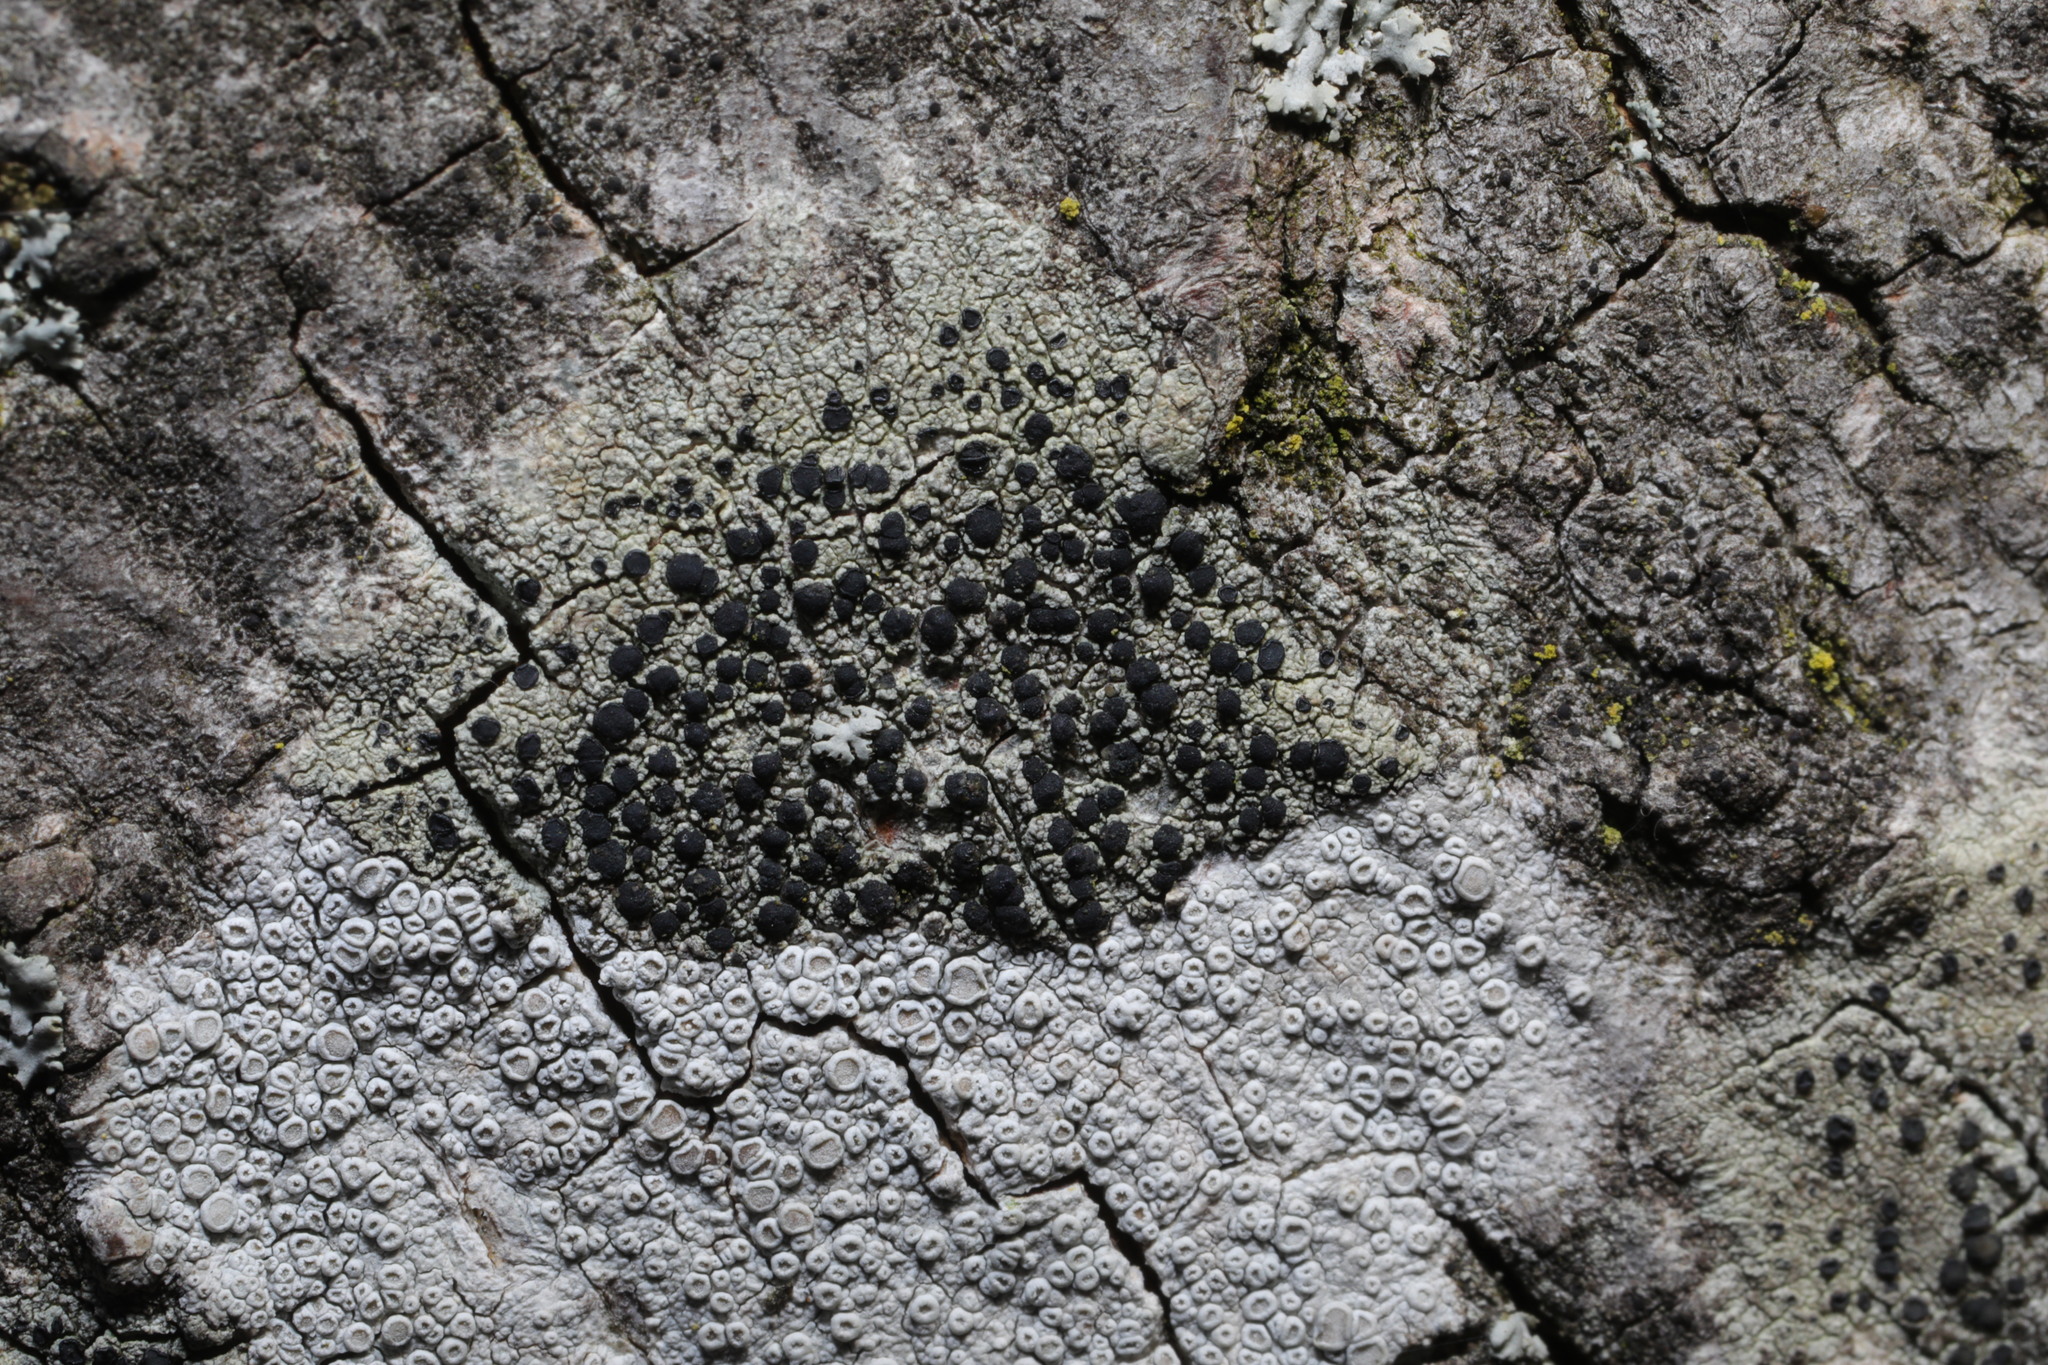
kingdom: Fungi
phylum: Ascomycota
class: Lecanoromycetes
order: Lecanorales
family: Lecanoraceae
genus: Lecidella
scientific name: Lecidella elaeochroma
